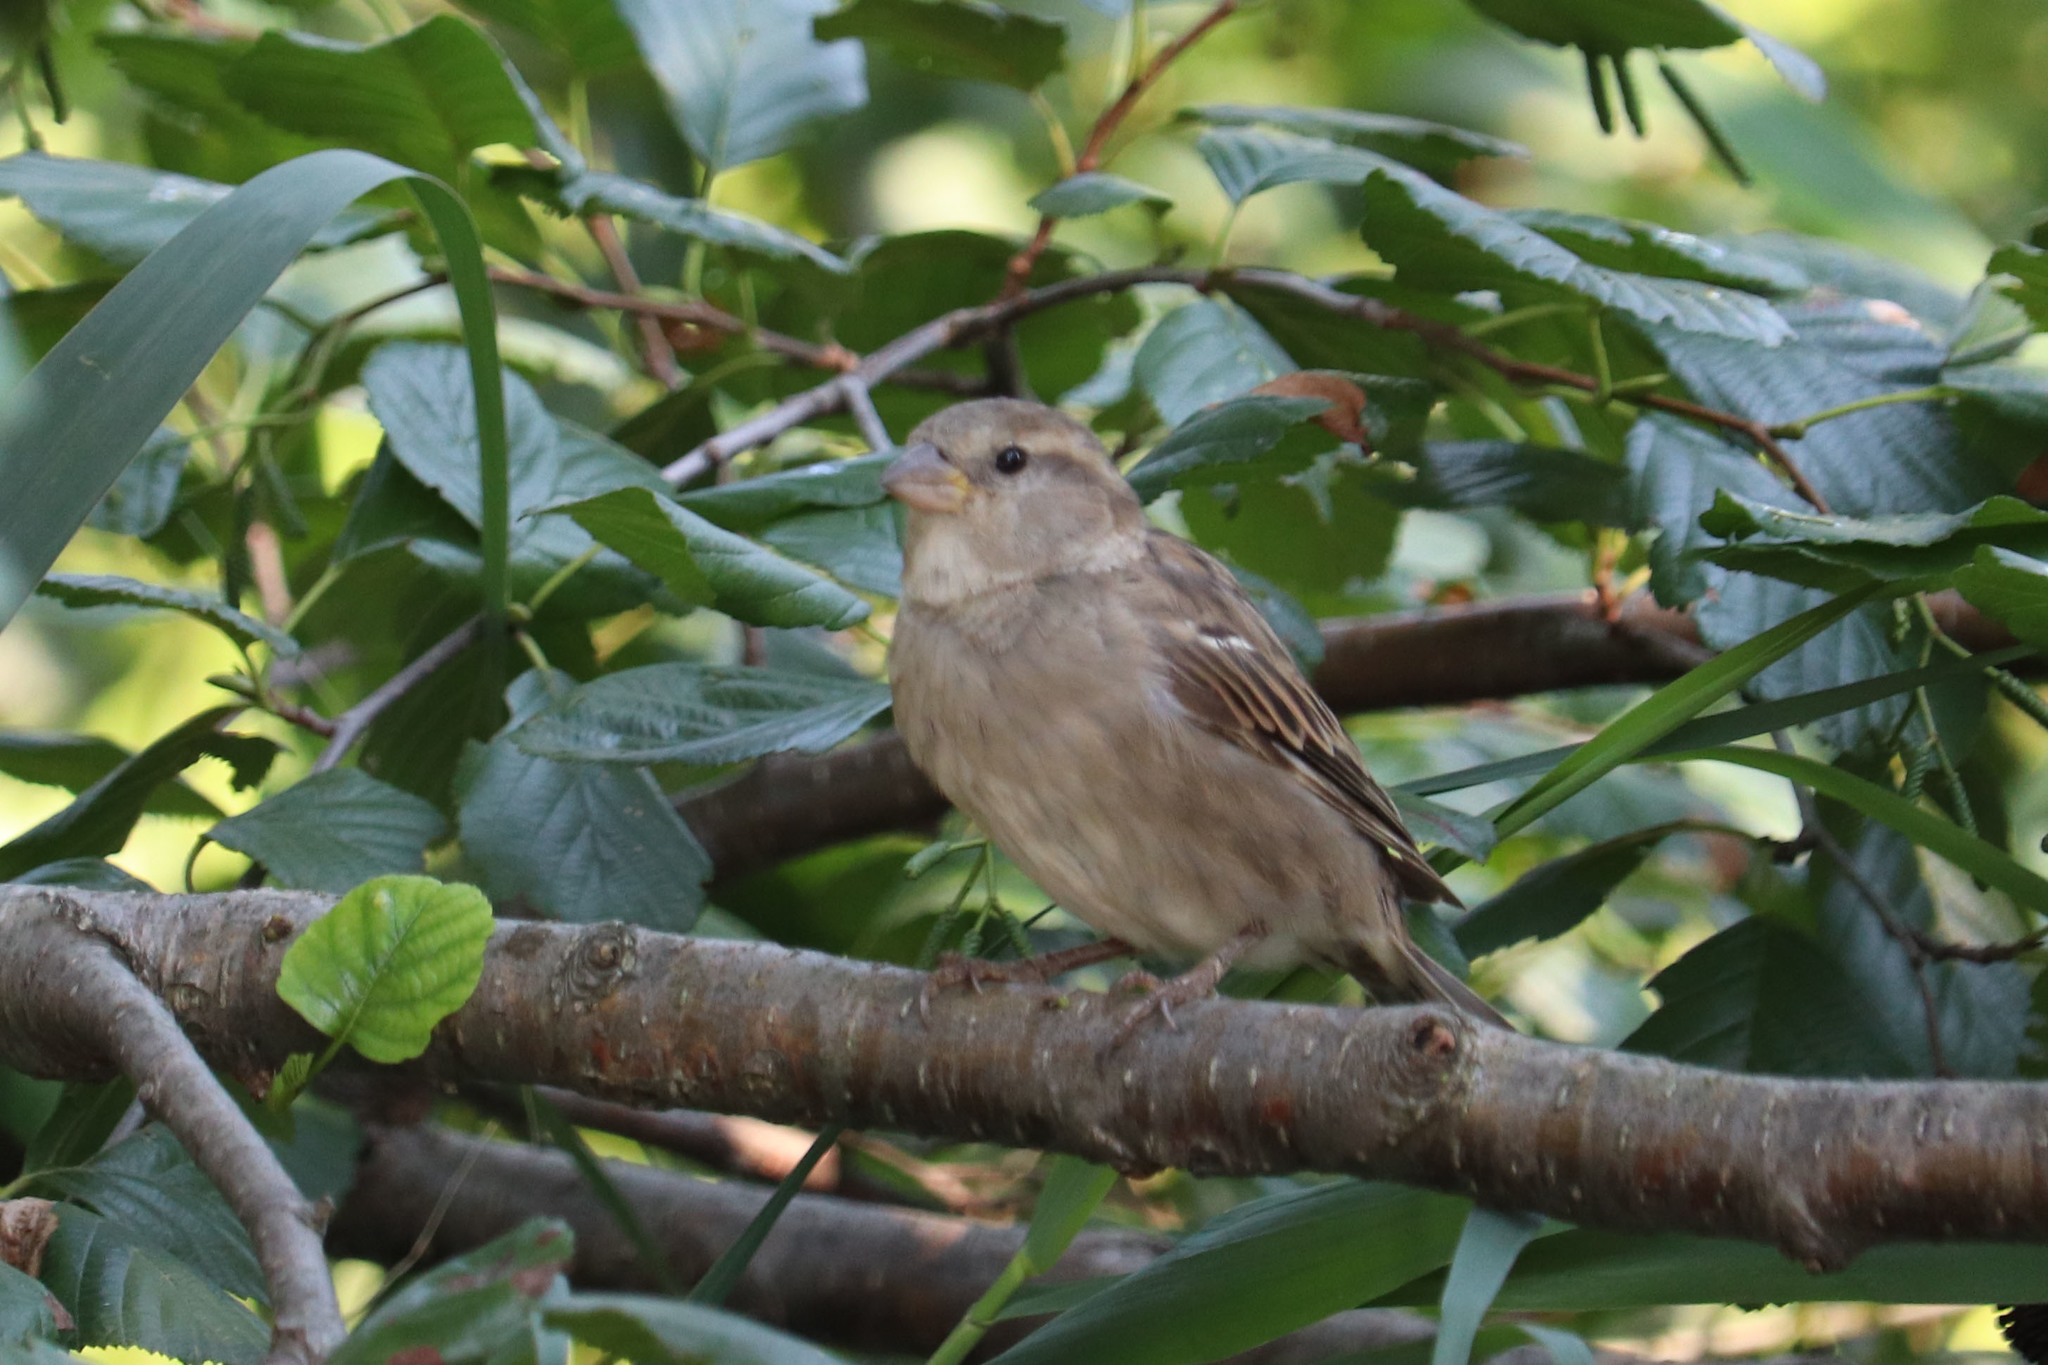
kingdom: Animalia
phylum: Chordata
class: Aves
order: Passeriformes
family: Passeridae
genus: Passer
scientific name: Passer domesticus
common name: House sparrow
